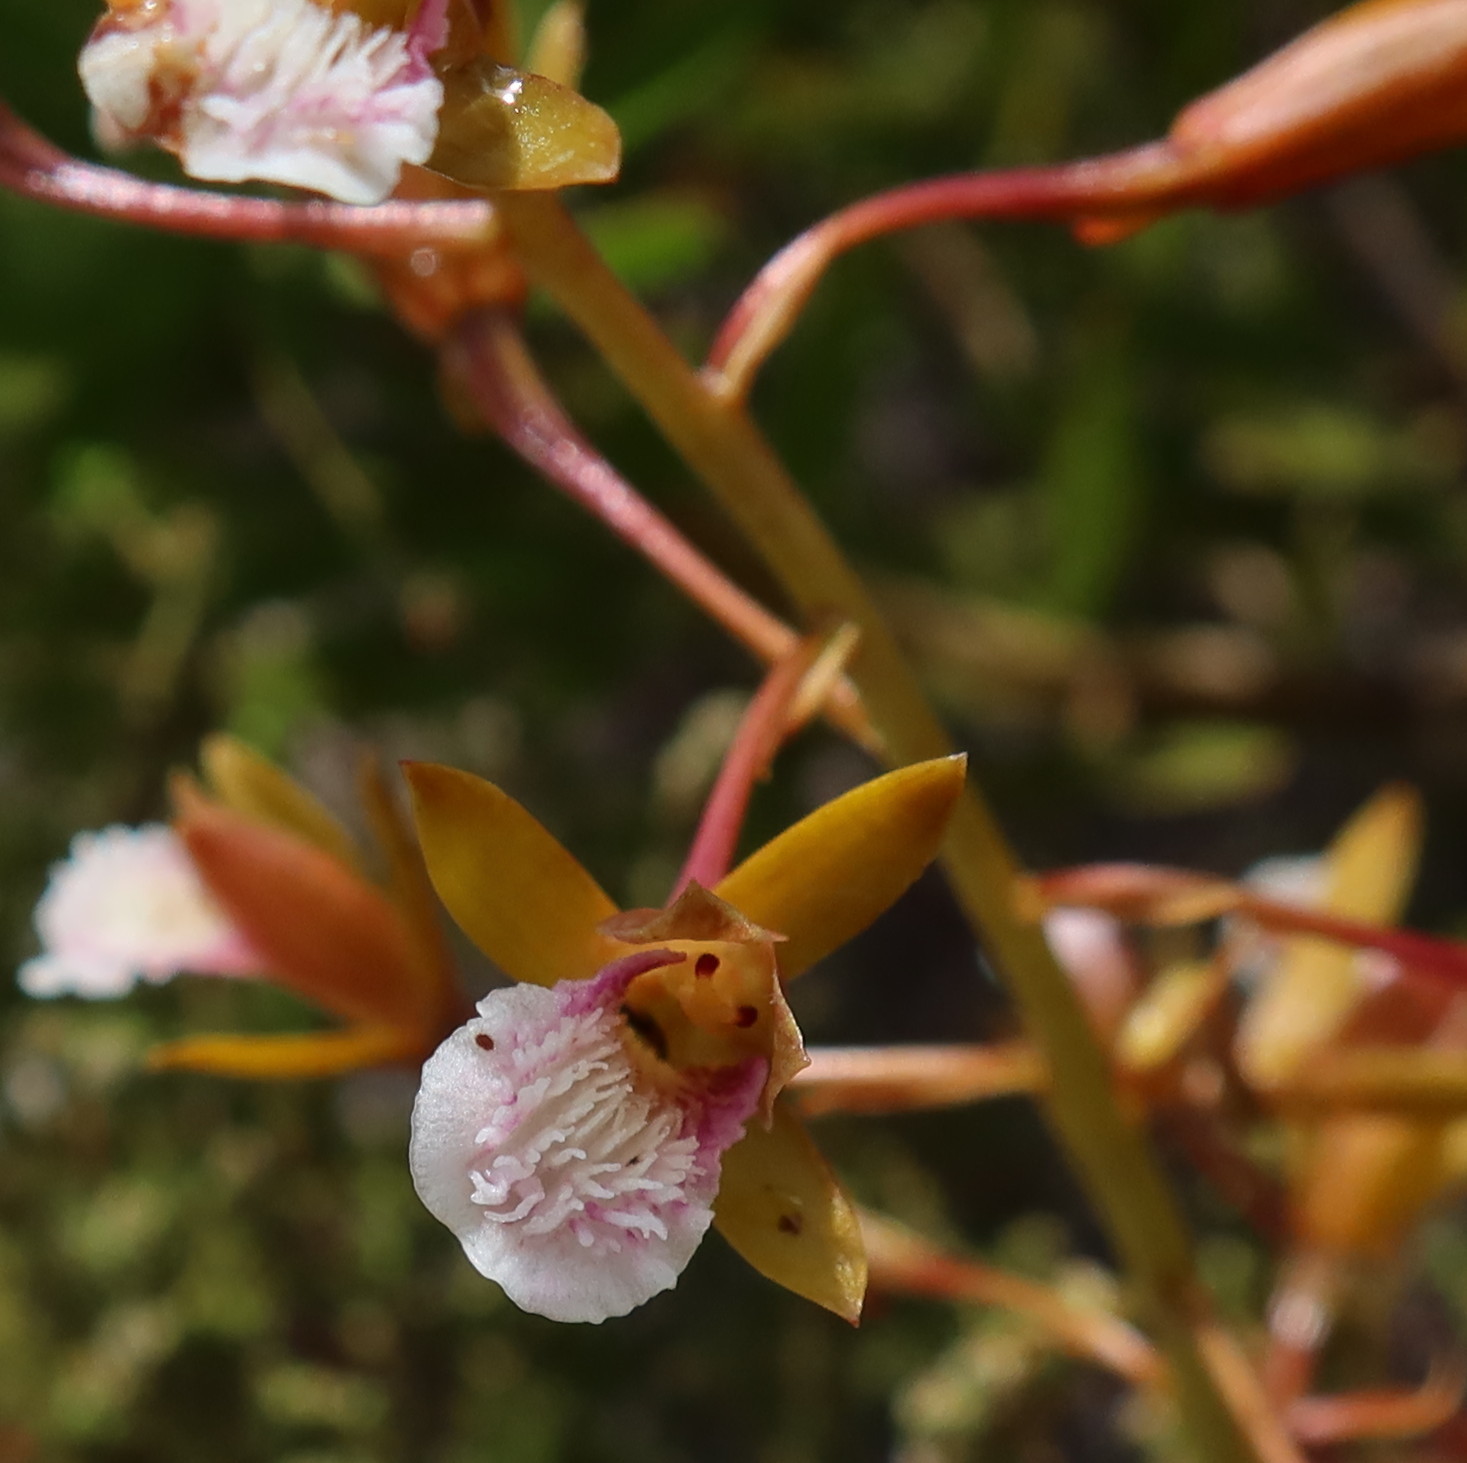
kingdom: Plantae
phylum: Tracheophyta
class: Liliopsida
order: Asparagales
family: Orchidaceae
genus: Eulophia
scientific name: Eulophia tristis
